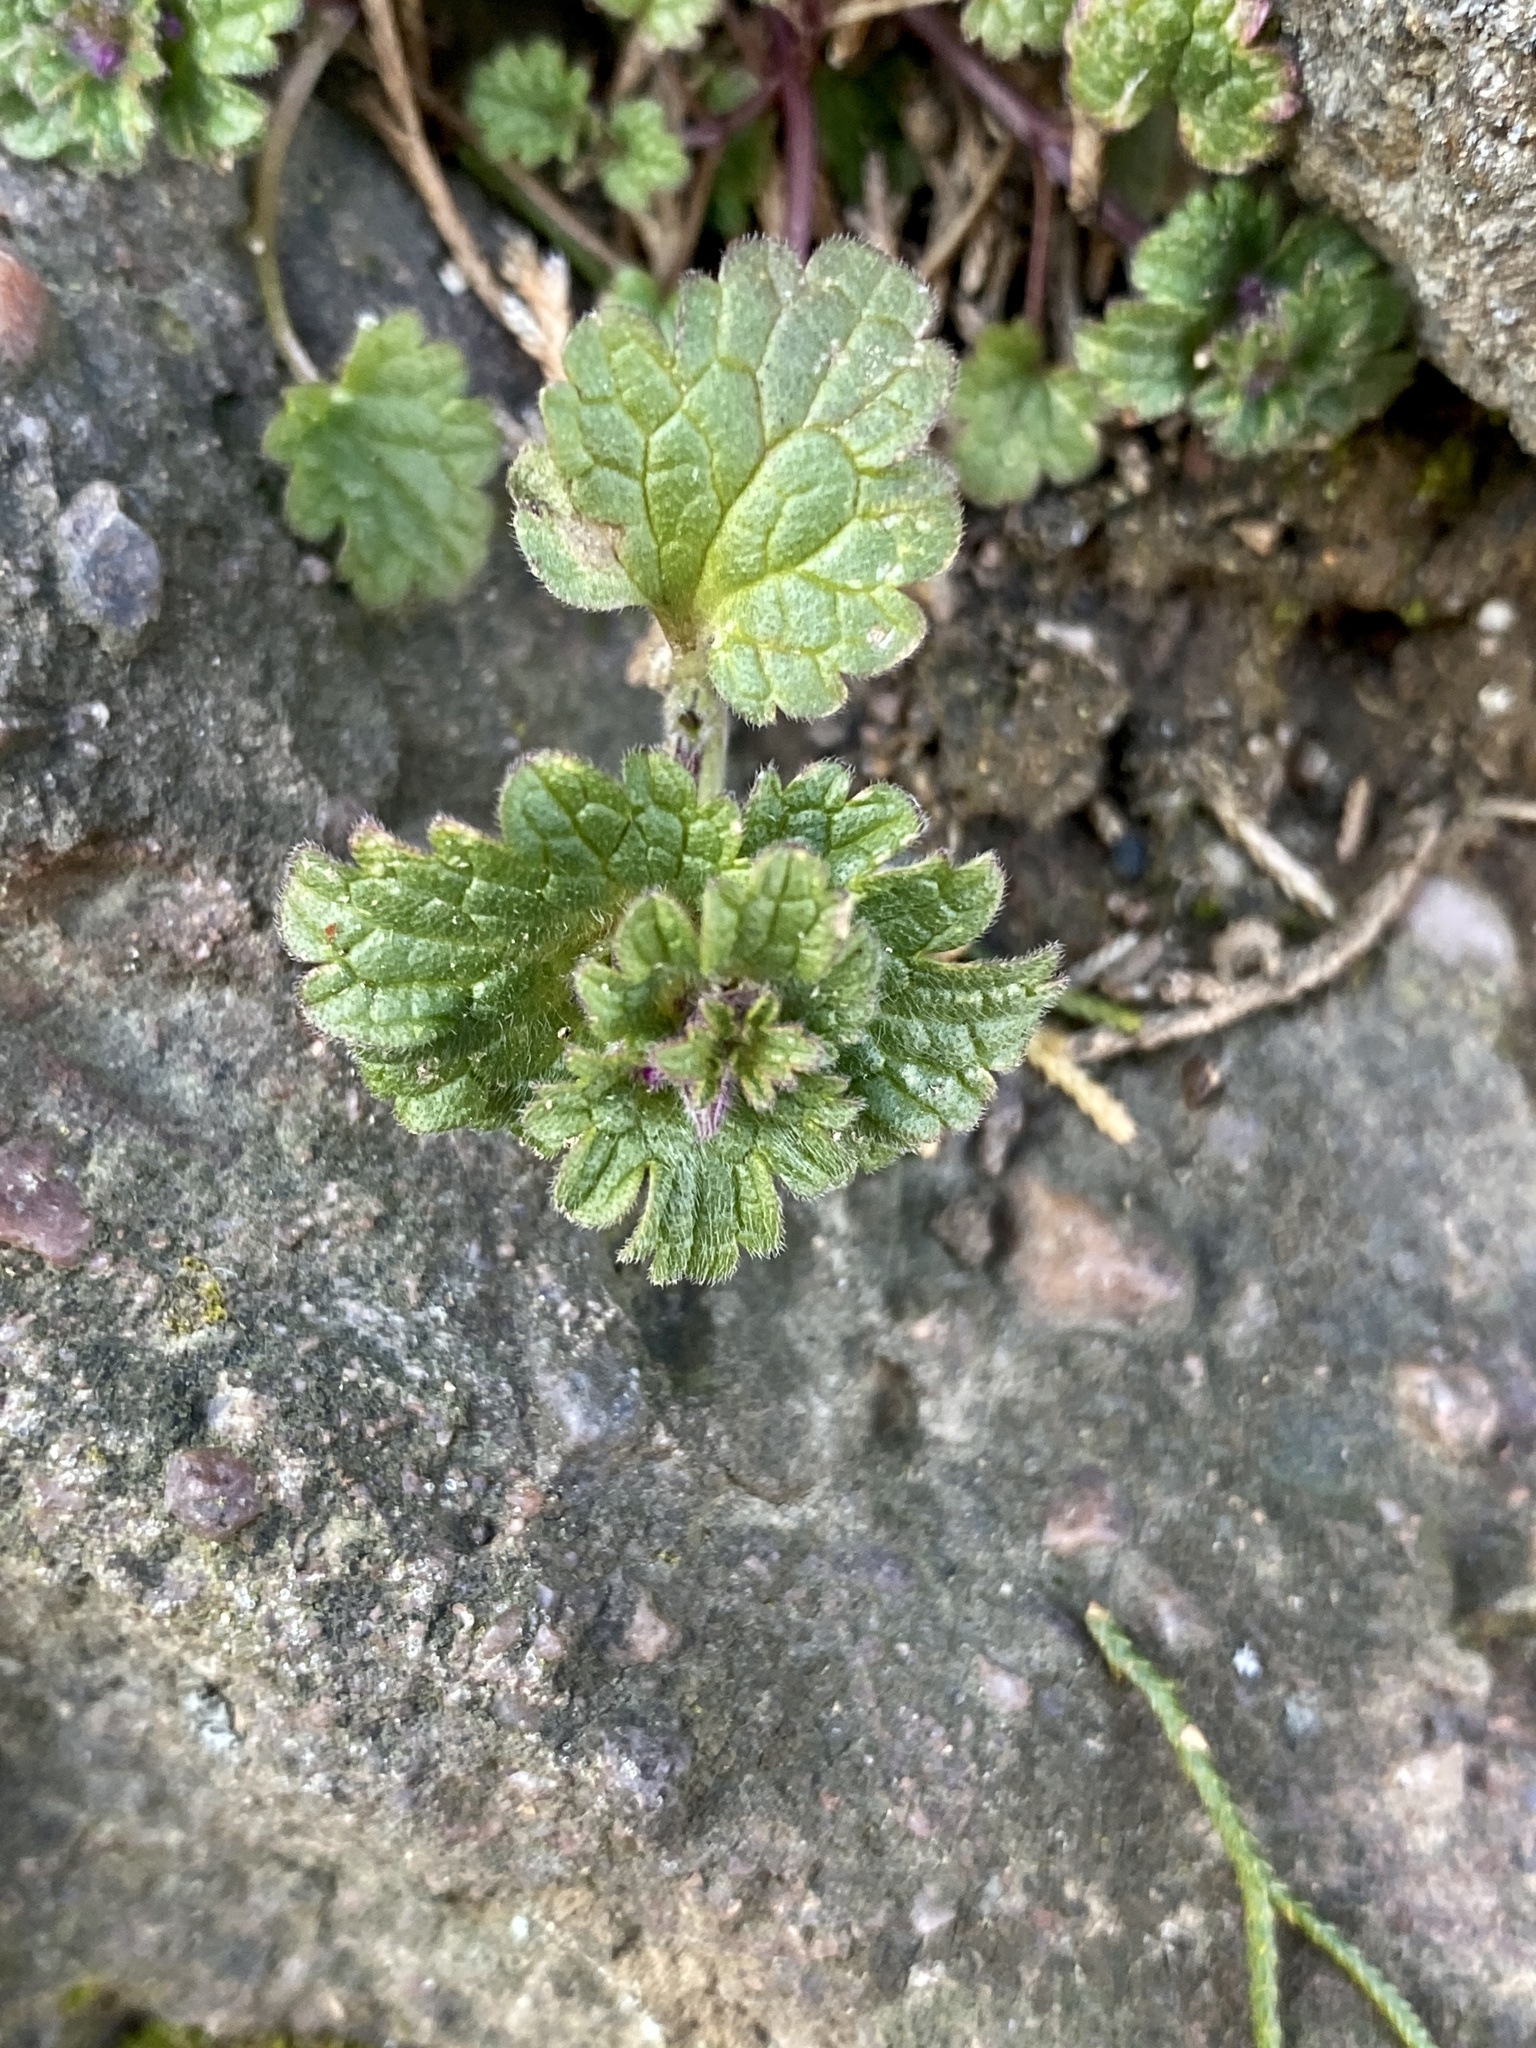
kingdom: Plantae
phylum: Tracheophyta
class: Magnoliopsida
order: Lamiales
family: Lamiaceae
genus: Lamium
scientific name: Lamium amplexicaule
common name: Henbit dead-nettle
